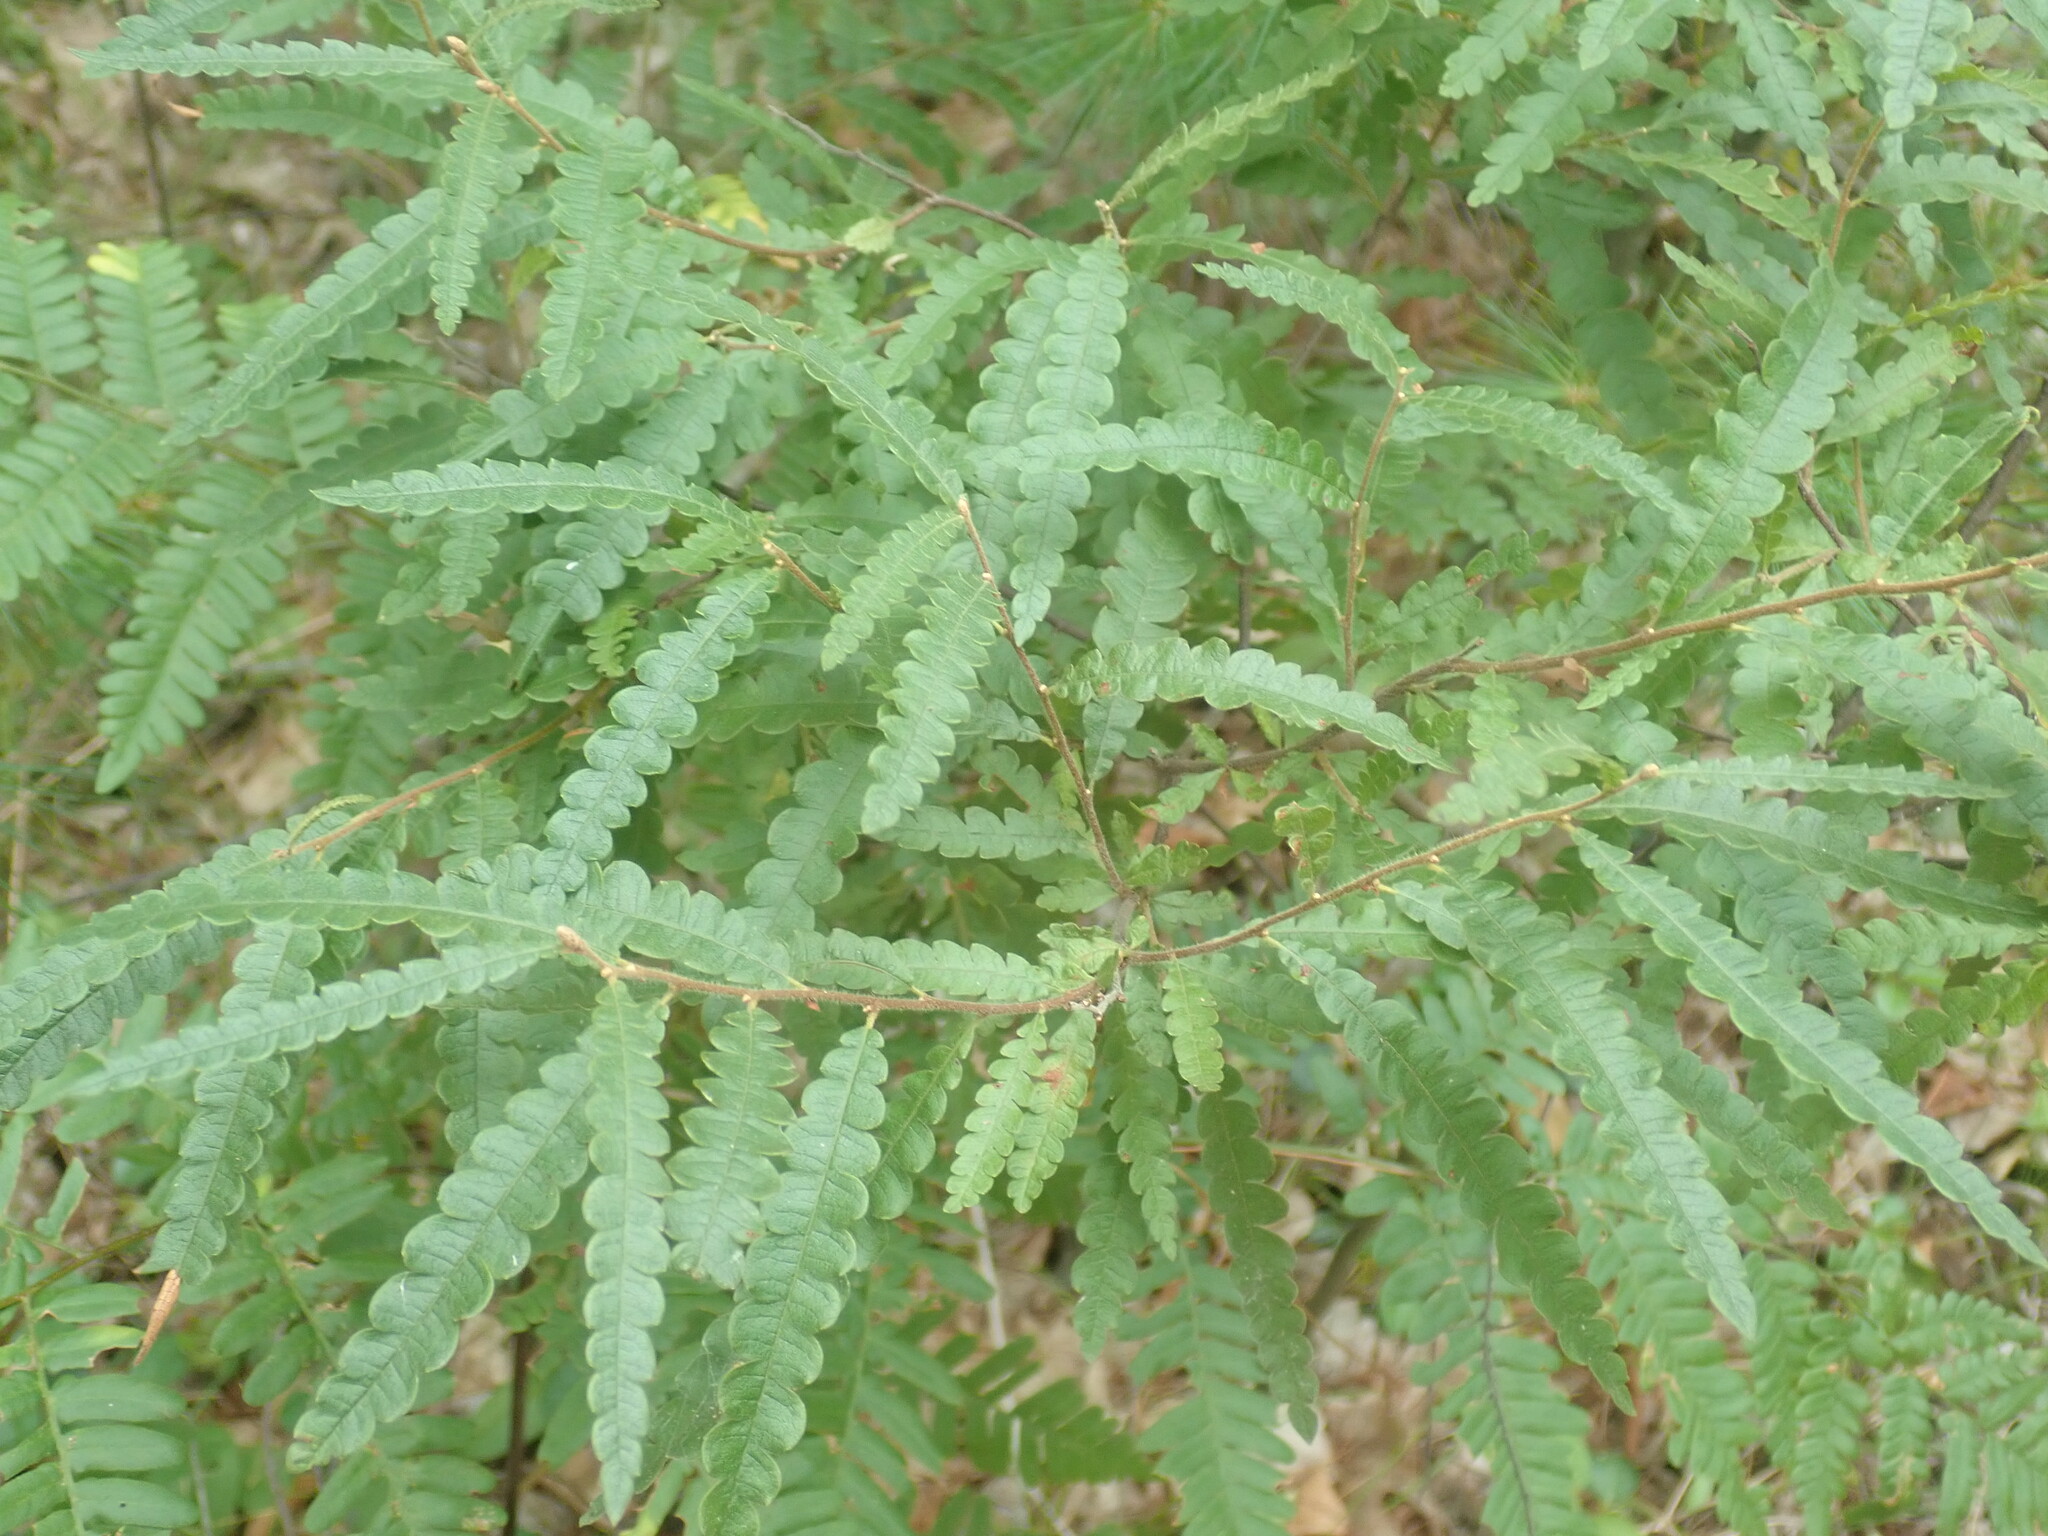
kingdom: Plantae
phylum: Tracheophyta
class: Magnoliopsida
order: Fagales
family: Myricaceae
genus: Comptonia
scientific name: Comptonia peregrina
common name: Sweet-fern
